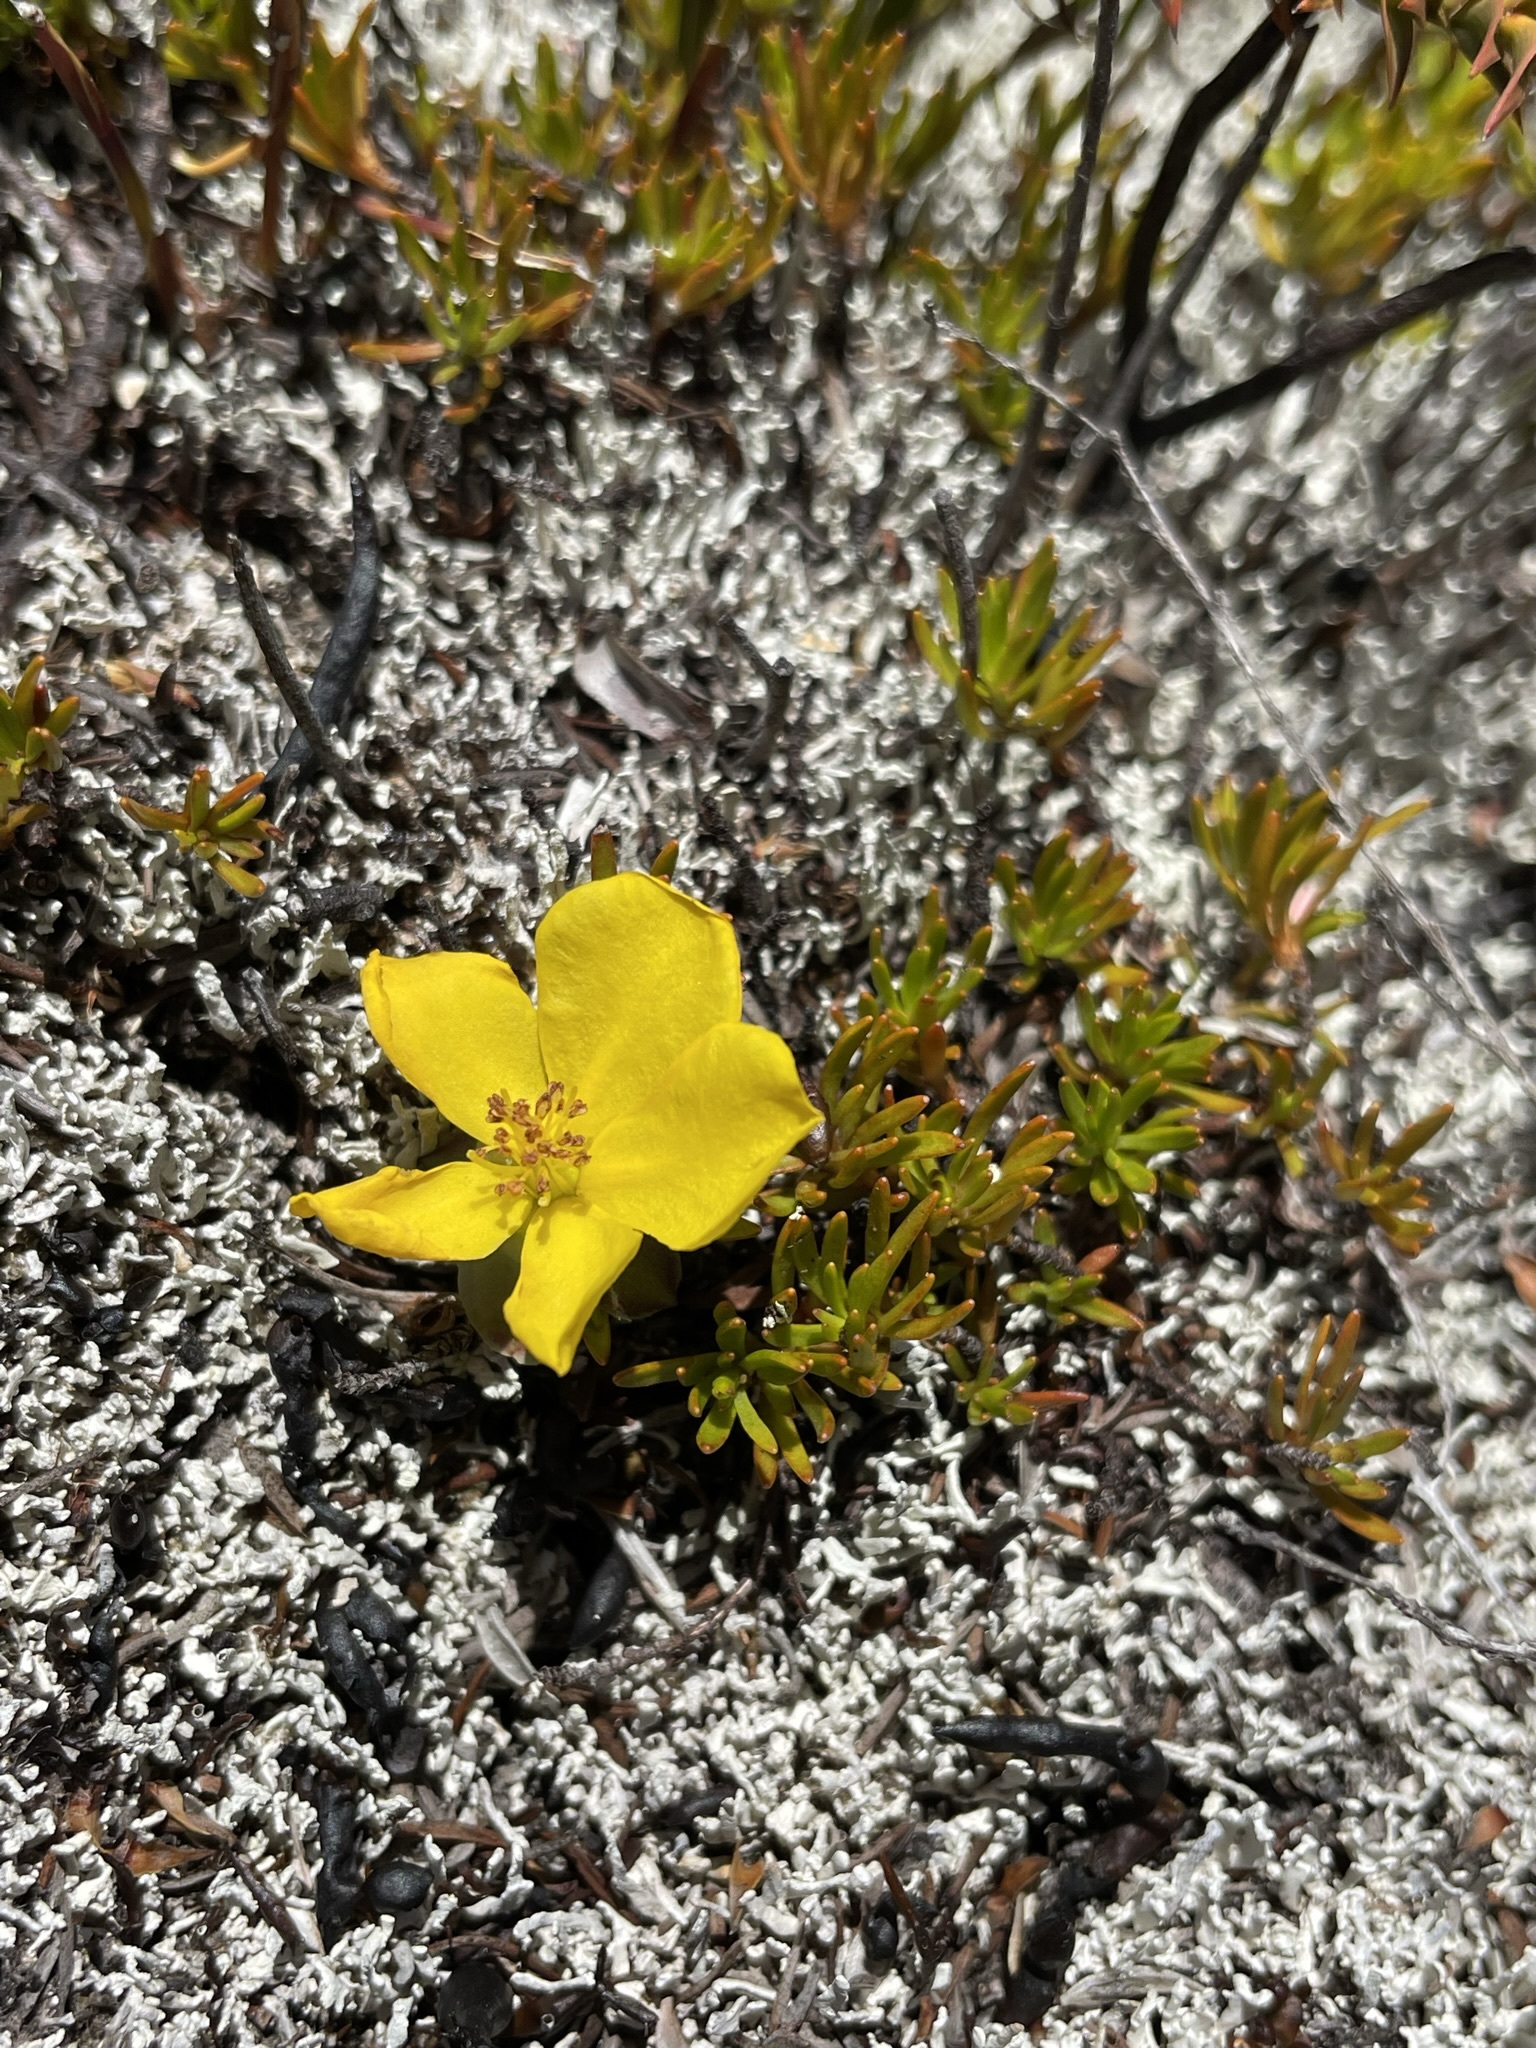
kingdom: Plantae
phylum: Tracheophyta
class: Magnoliopsida
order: Dilleniales
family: Dilleniaceae
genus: Hibbertia
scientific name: Hibbertia procumbens
